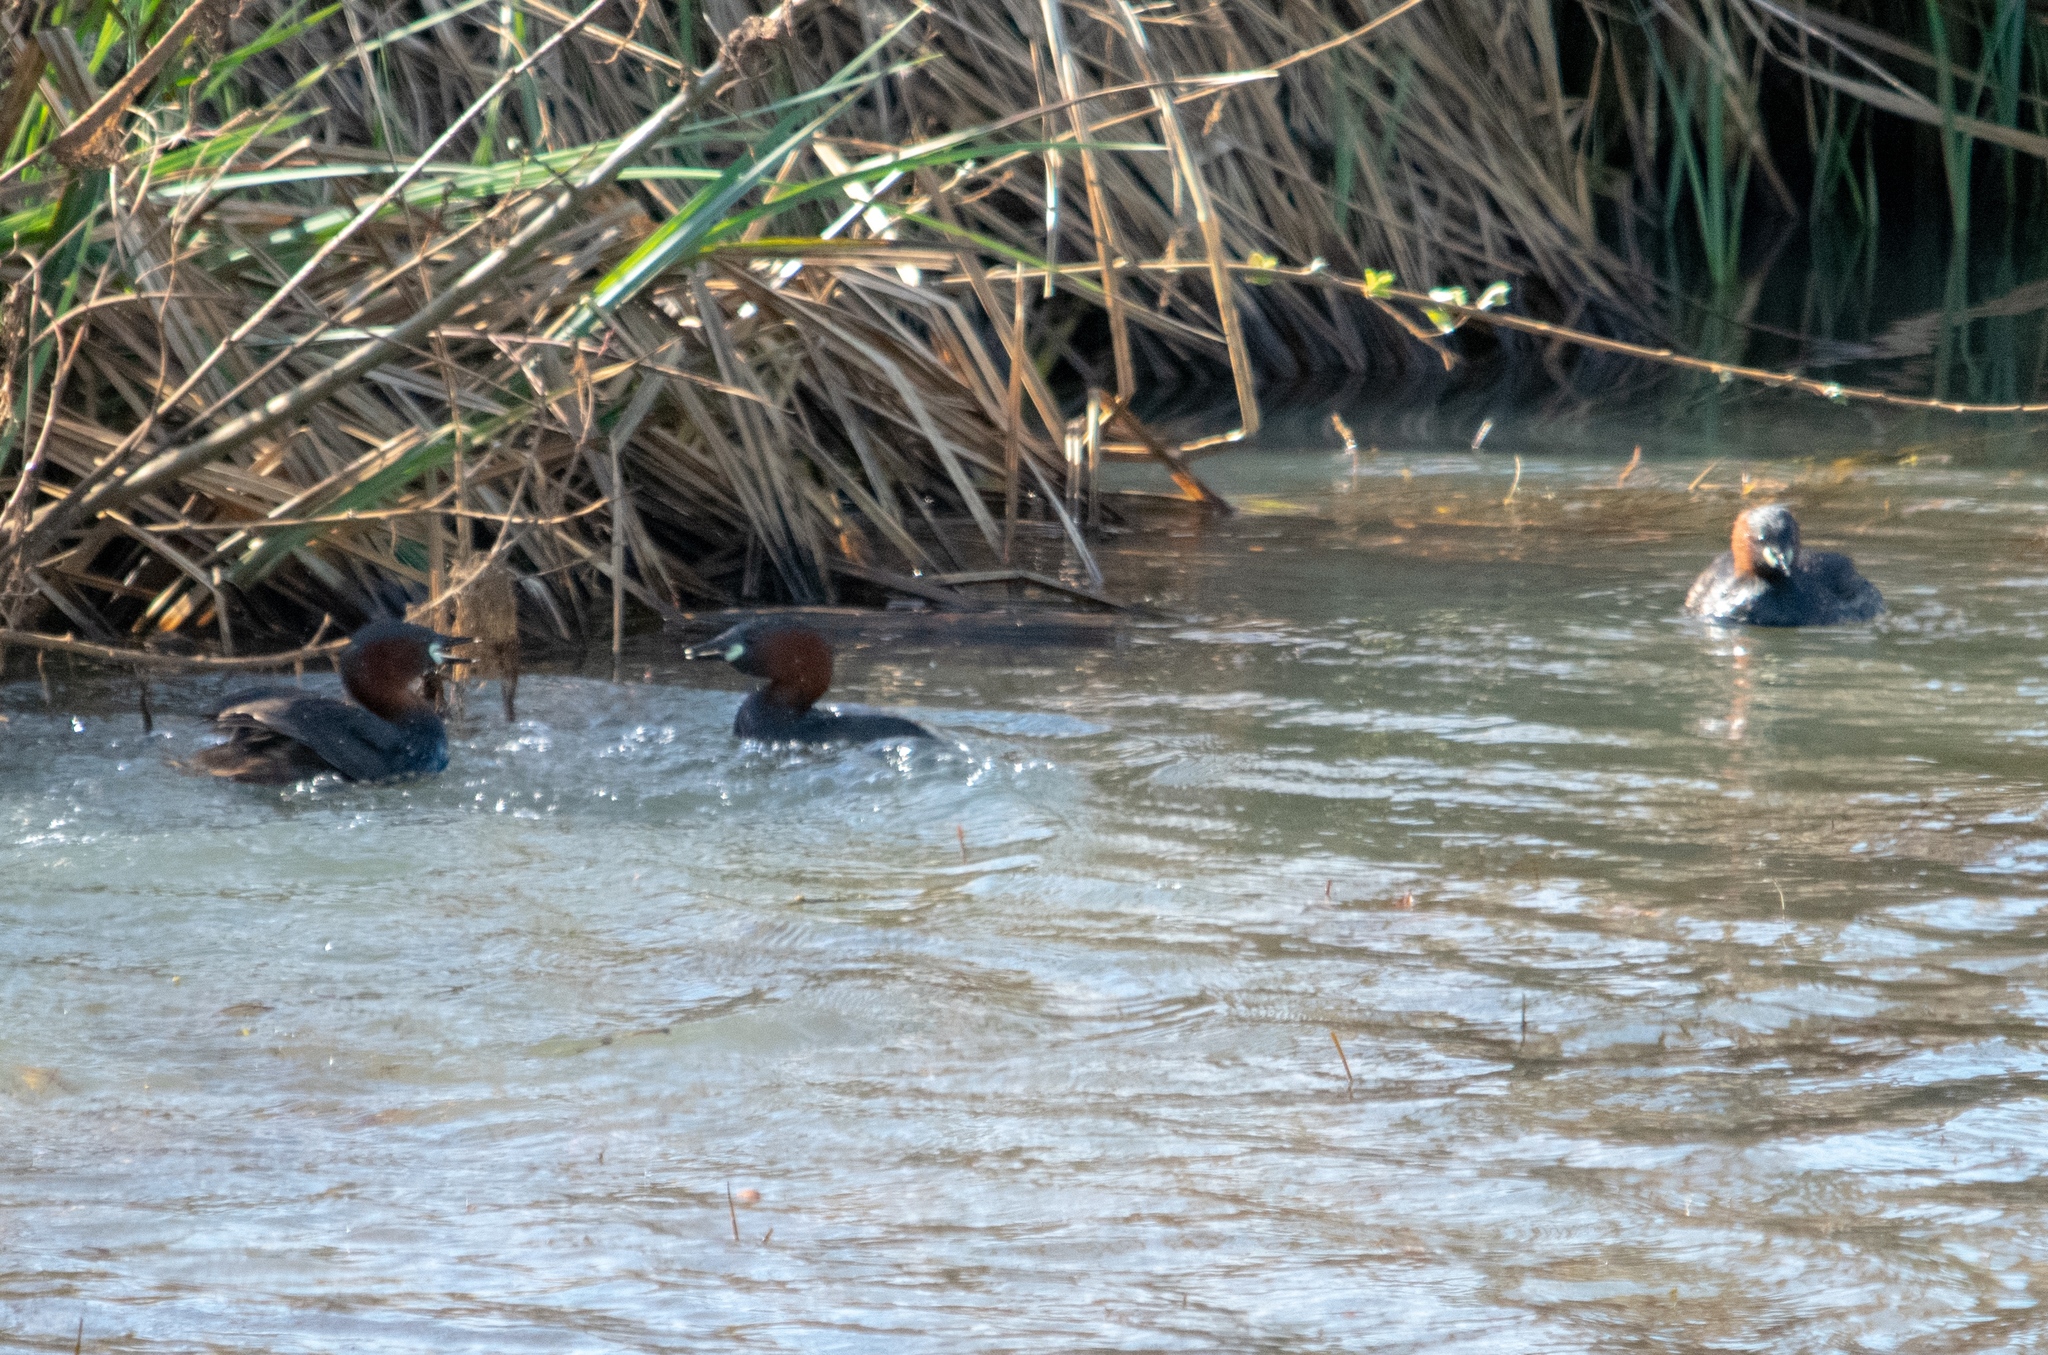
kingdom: Animalia
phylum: Chordata
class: Aves
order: Podicipediformes
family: Podicipedidae
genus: Tachybaptus
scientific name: Tachybaptus ruficollis
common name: Little grebe
